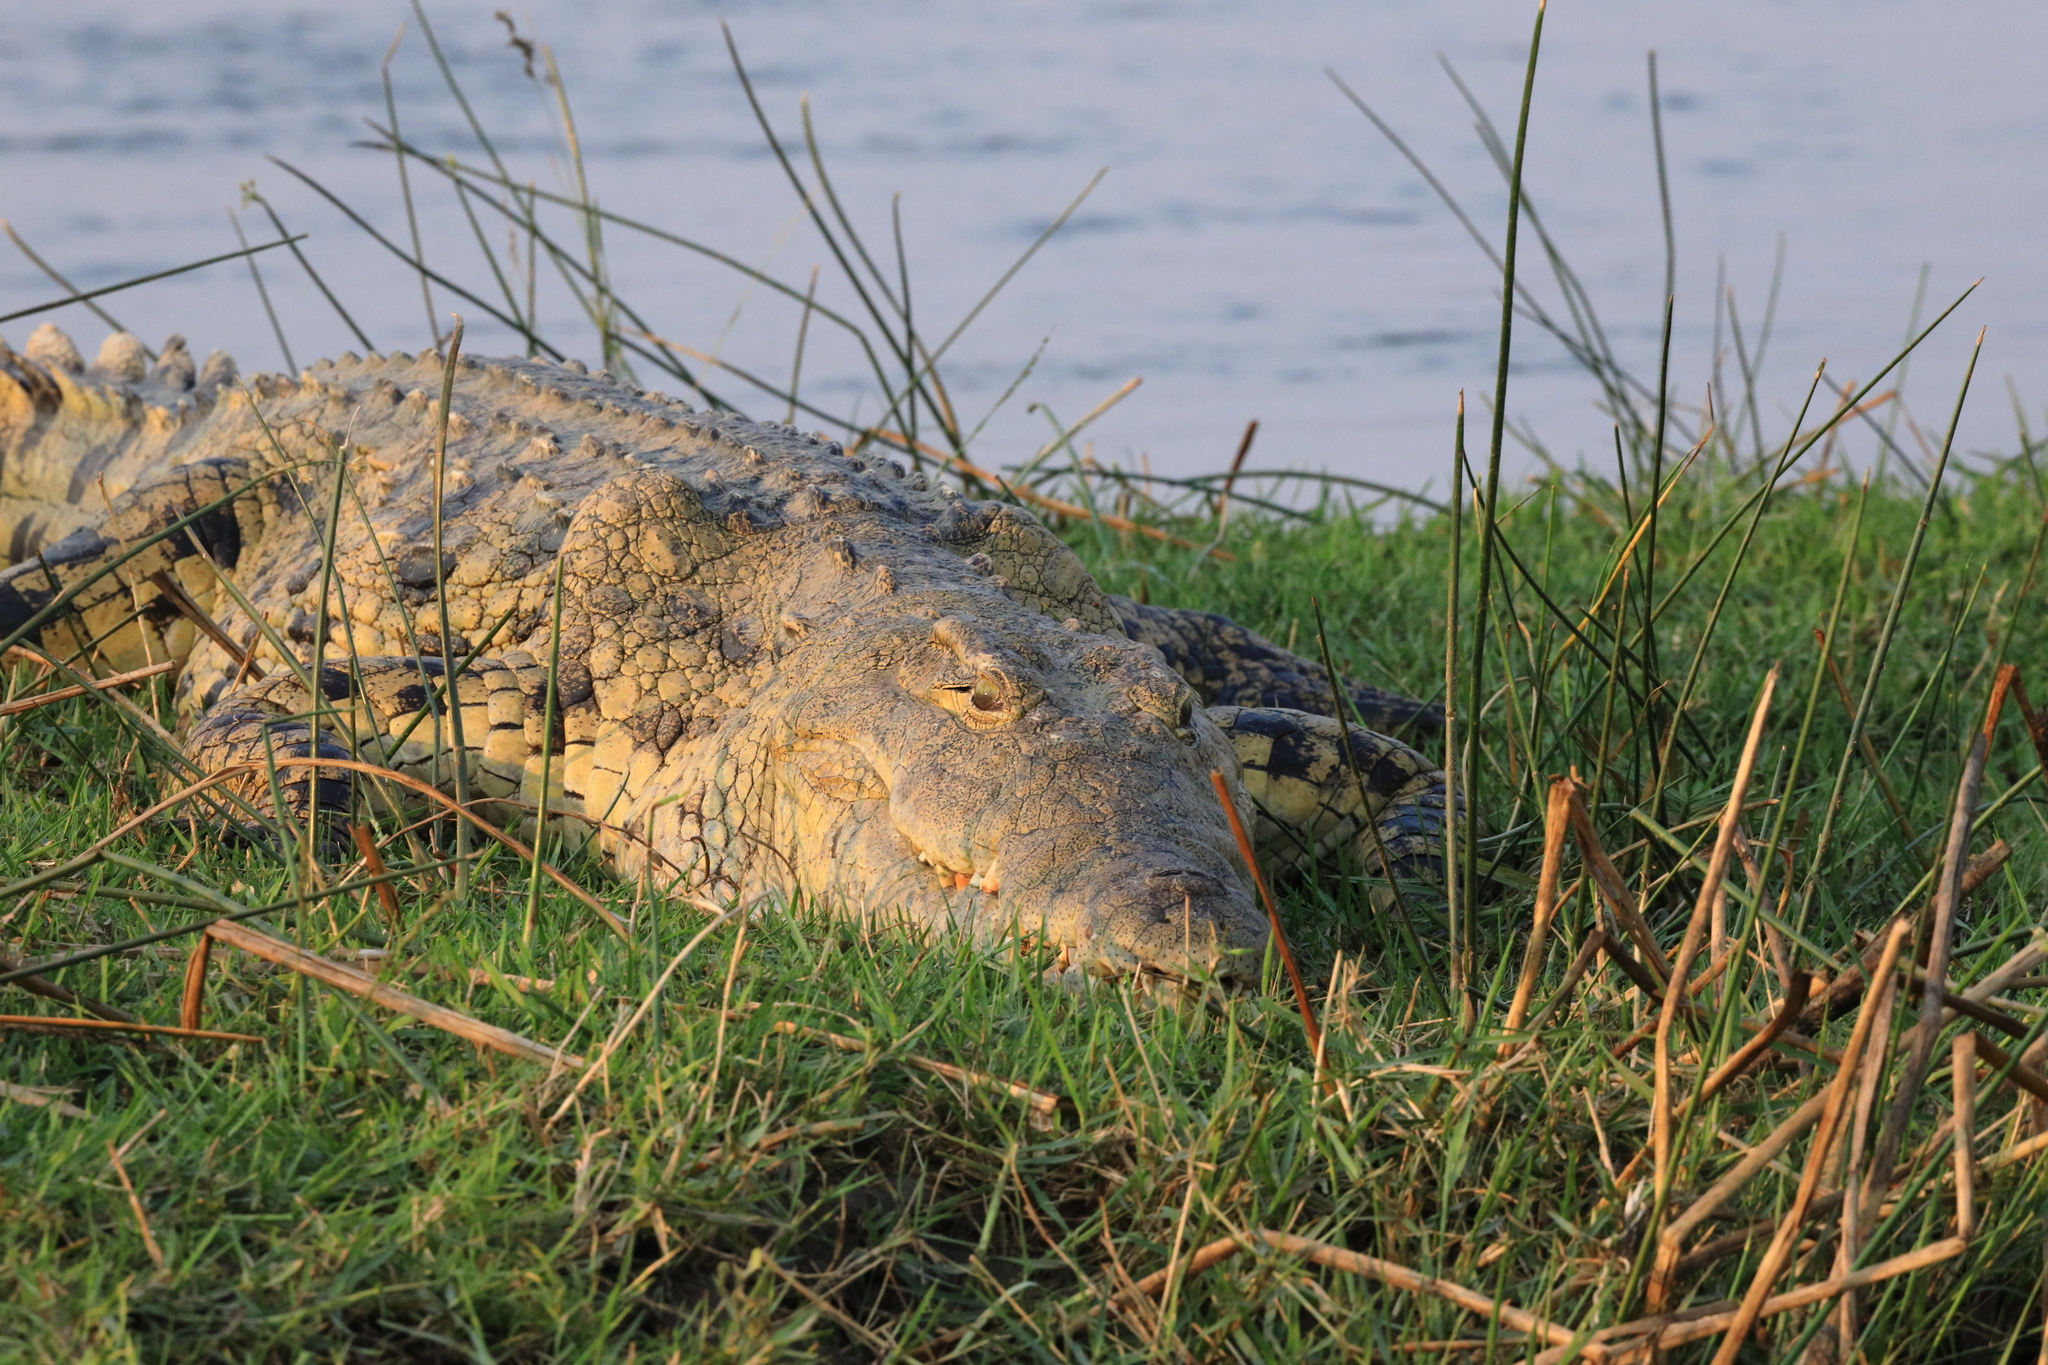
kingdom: Animalia
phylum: Chordata
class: Crocodylia
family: Crocodylidae
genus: Crocodylus
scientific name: Crocodylus niloticus
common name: Nile crocodile
